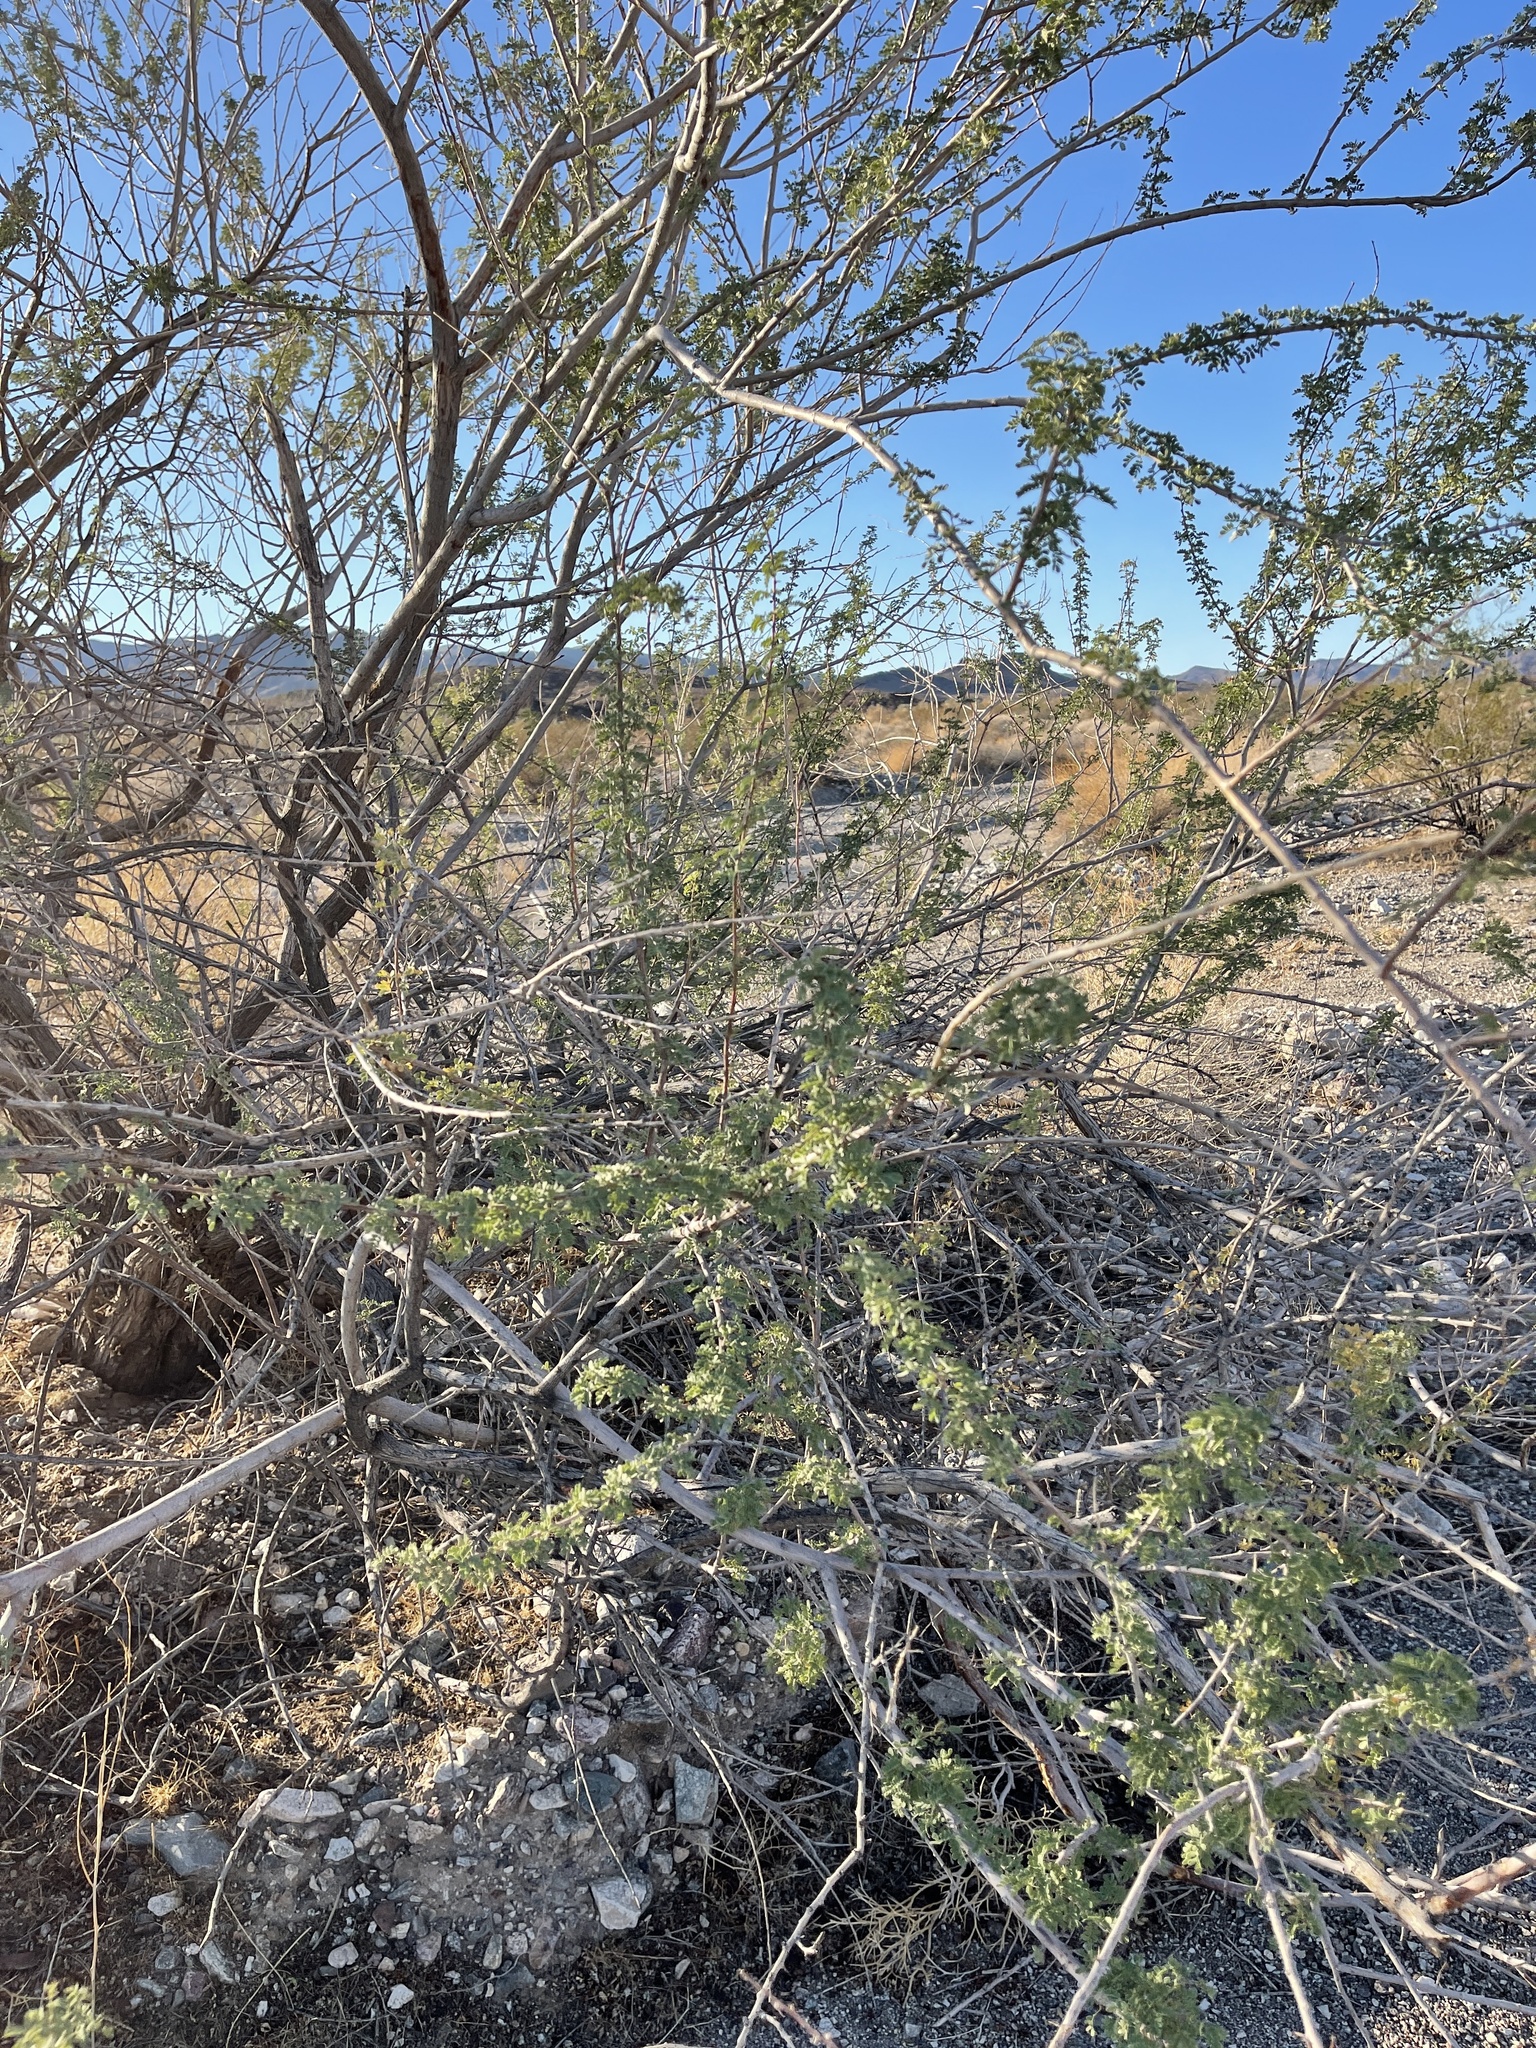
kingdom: Plantae
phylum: Tracheophyta
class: Magnoliopsida
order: Fabales
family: Fabaceae
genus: Senegalia
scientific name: Senegalia greggii
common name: Texas-mimosa
